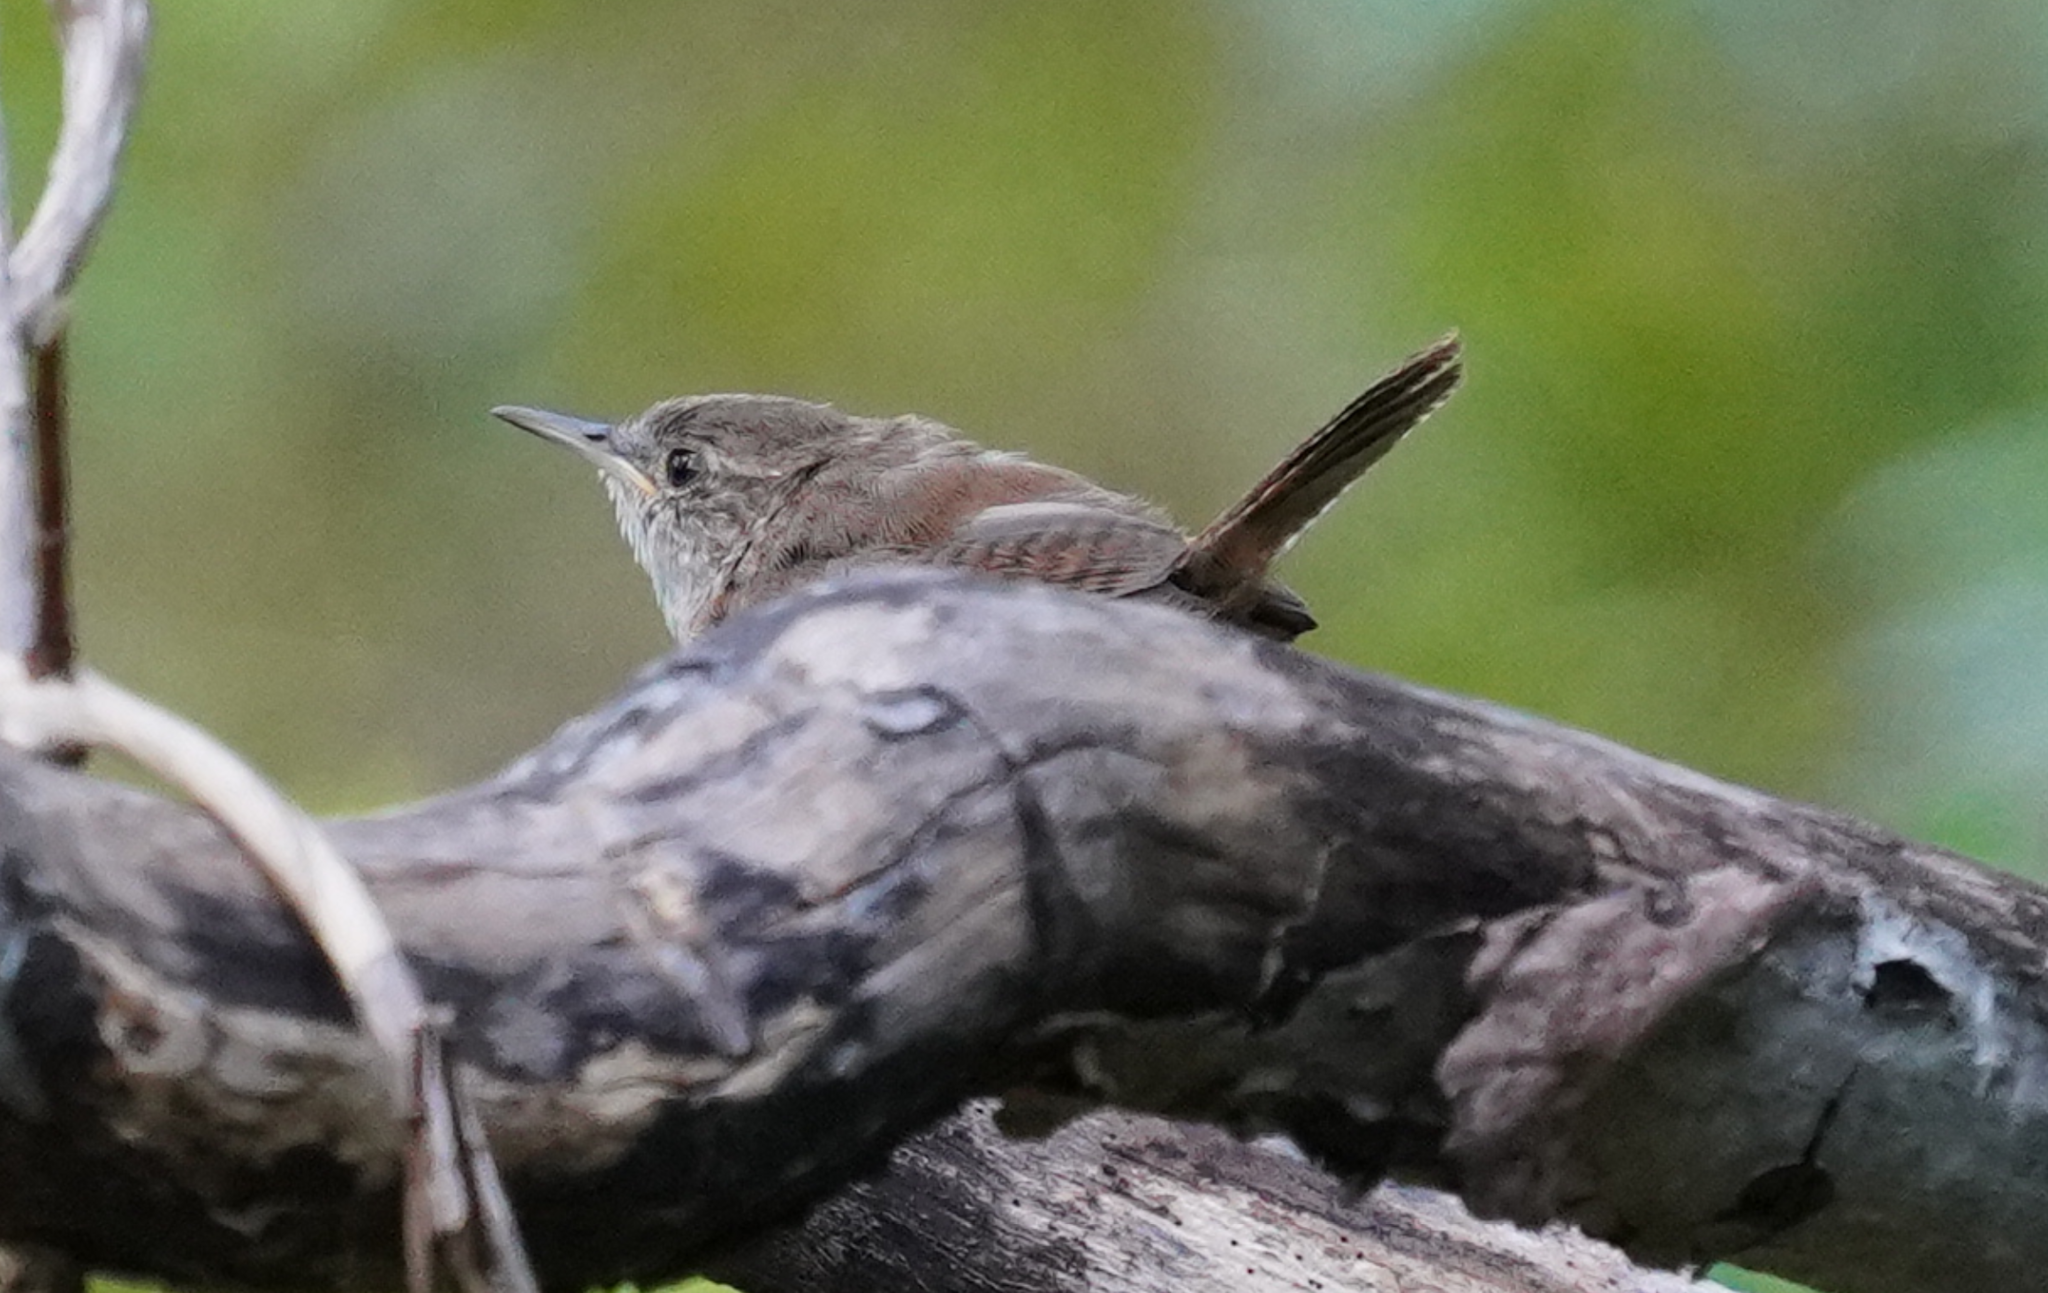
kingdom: Animalia
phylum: Chordata
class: Aves
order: Passeriformes
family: Troglodytidae
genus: Thryothorus
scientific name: Thryothorus ludovicianus
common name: Carolina wren
